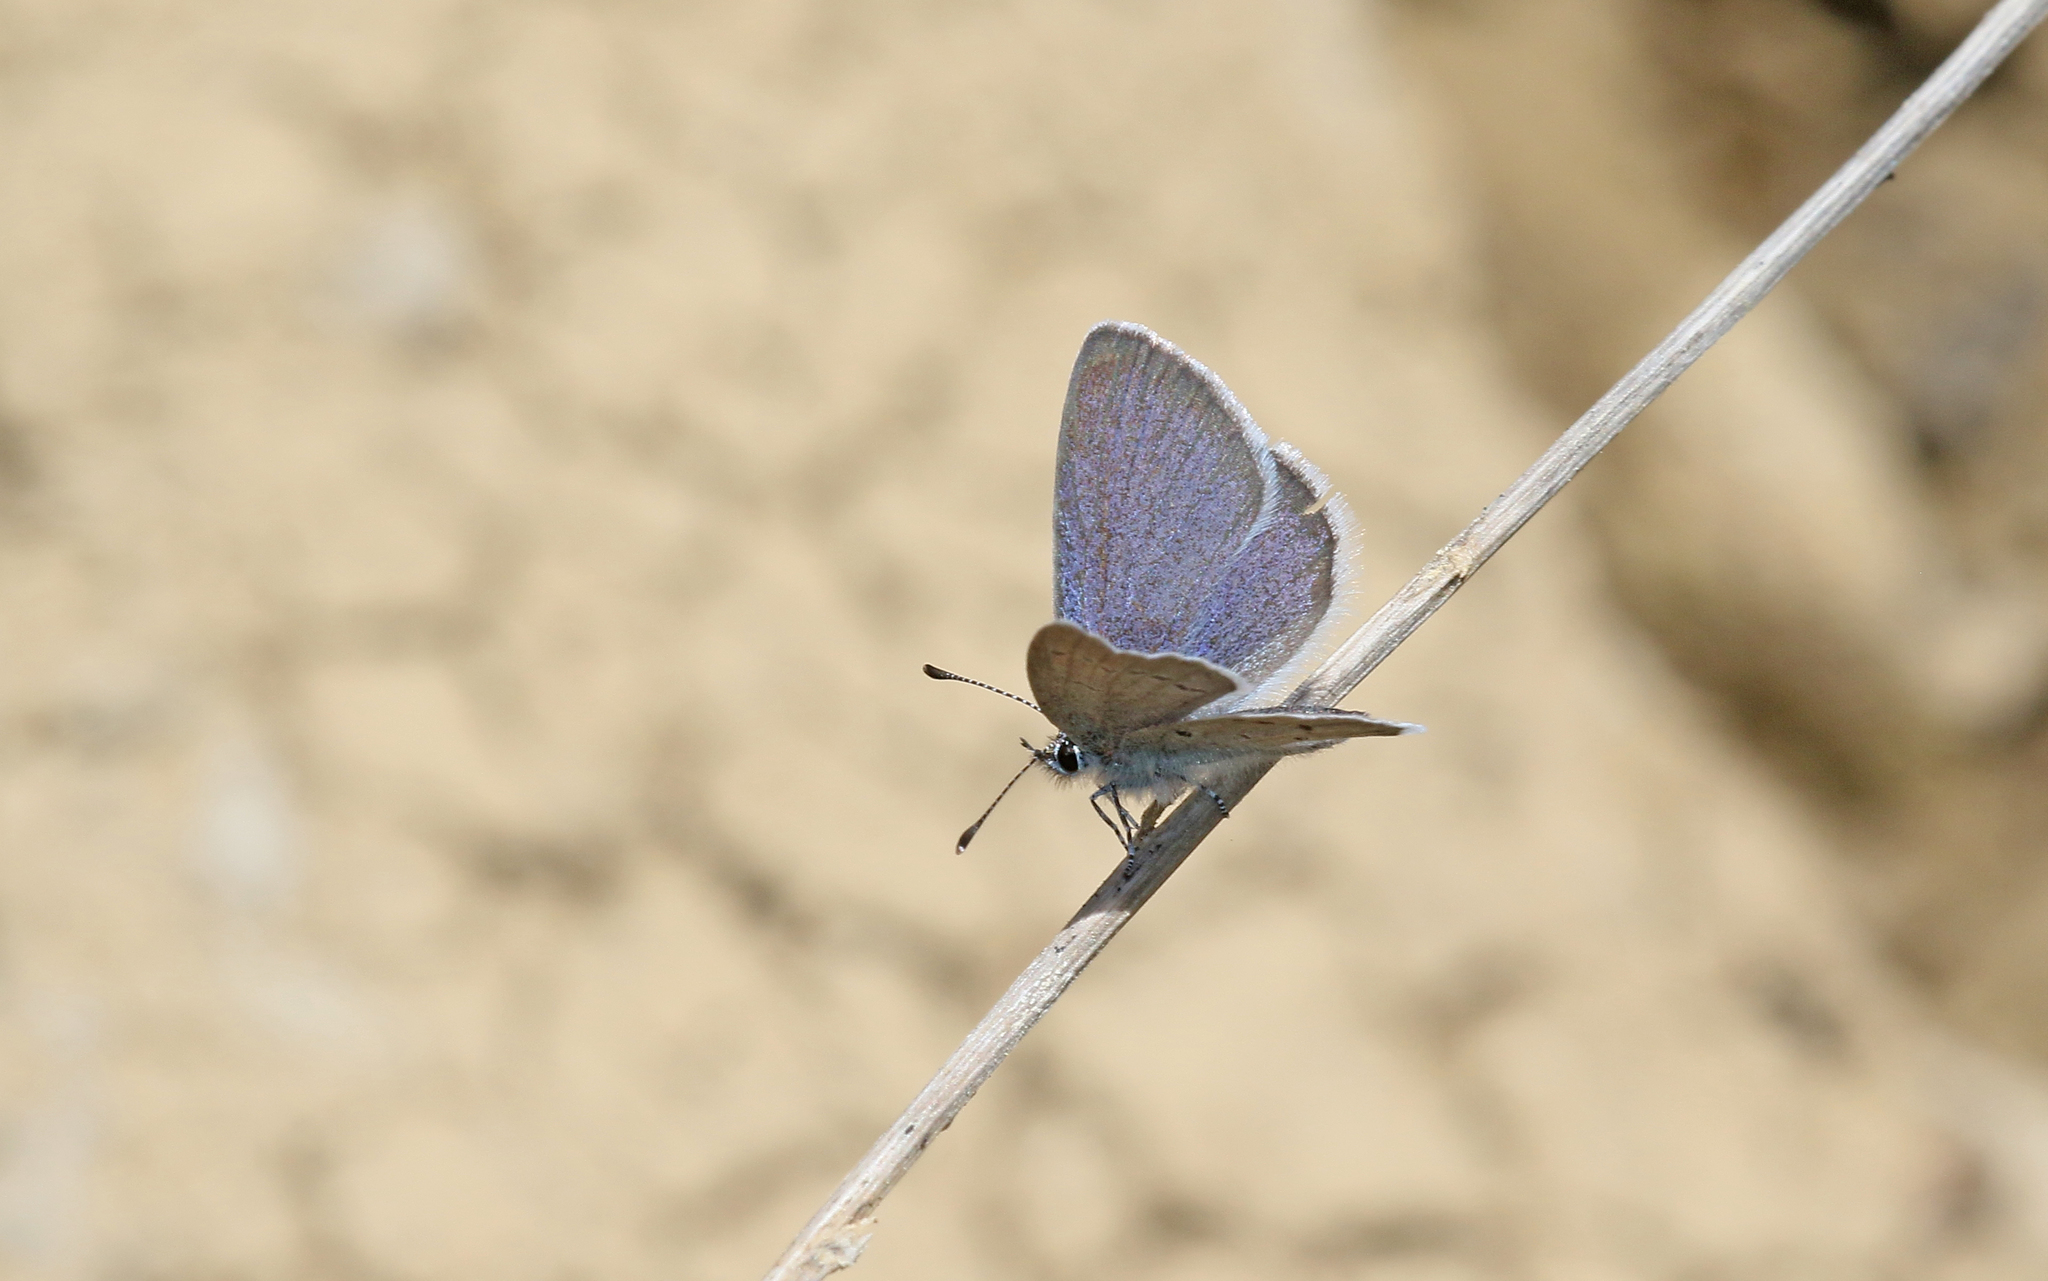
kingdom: Animalia
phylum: Arthropoda
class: Insecta
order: Lepidoptera
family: Lycaenidae
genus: Cupido
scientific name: Cupido lorquinii
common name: Lorquin’s blue
